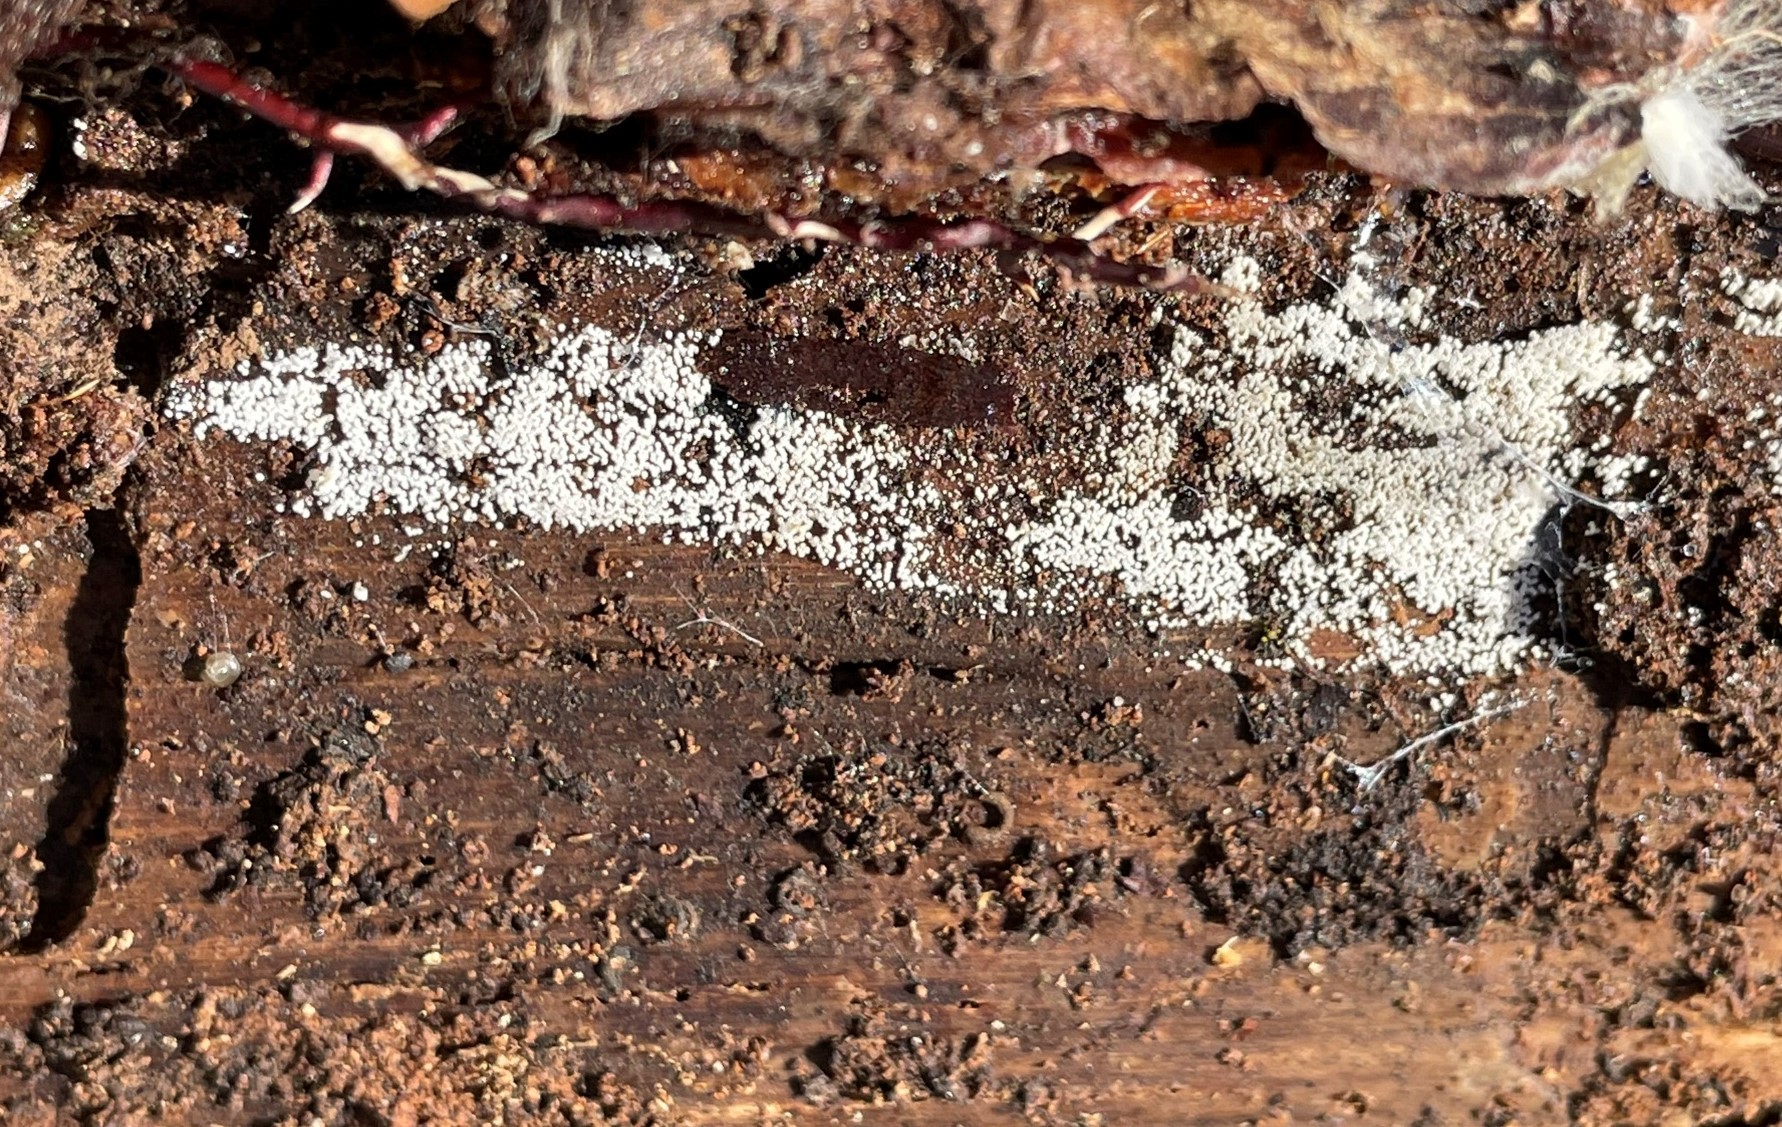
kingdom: Fungi
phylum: Basidiomycota
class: Agaricomycetes
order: Agaricales
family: Marasmiaceae
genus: Henningsomyces
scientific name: Henningsomyces candidus
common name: White tubelet
